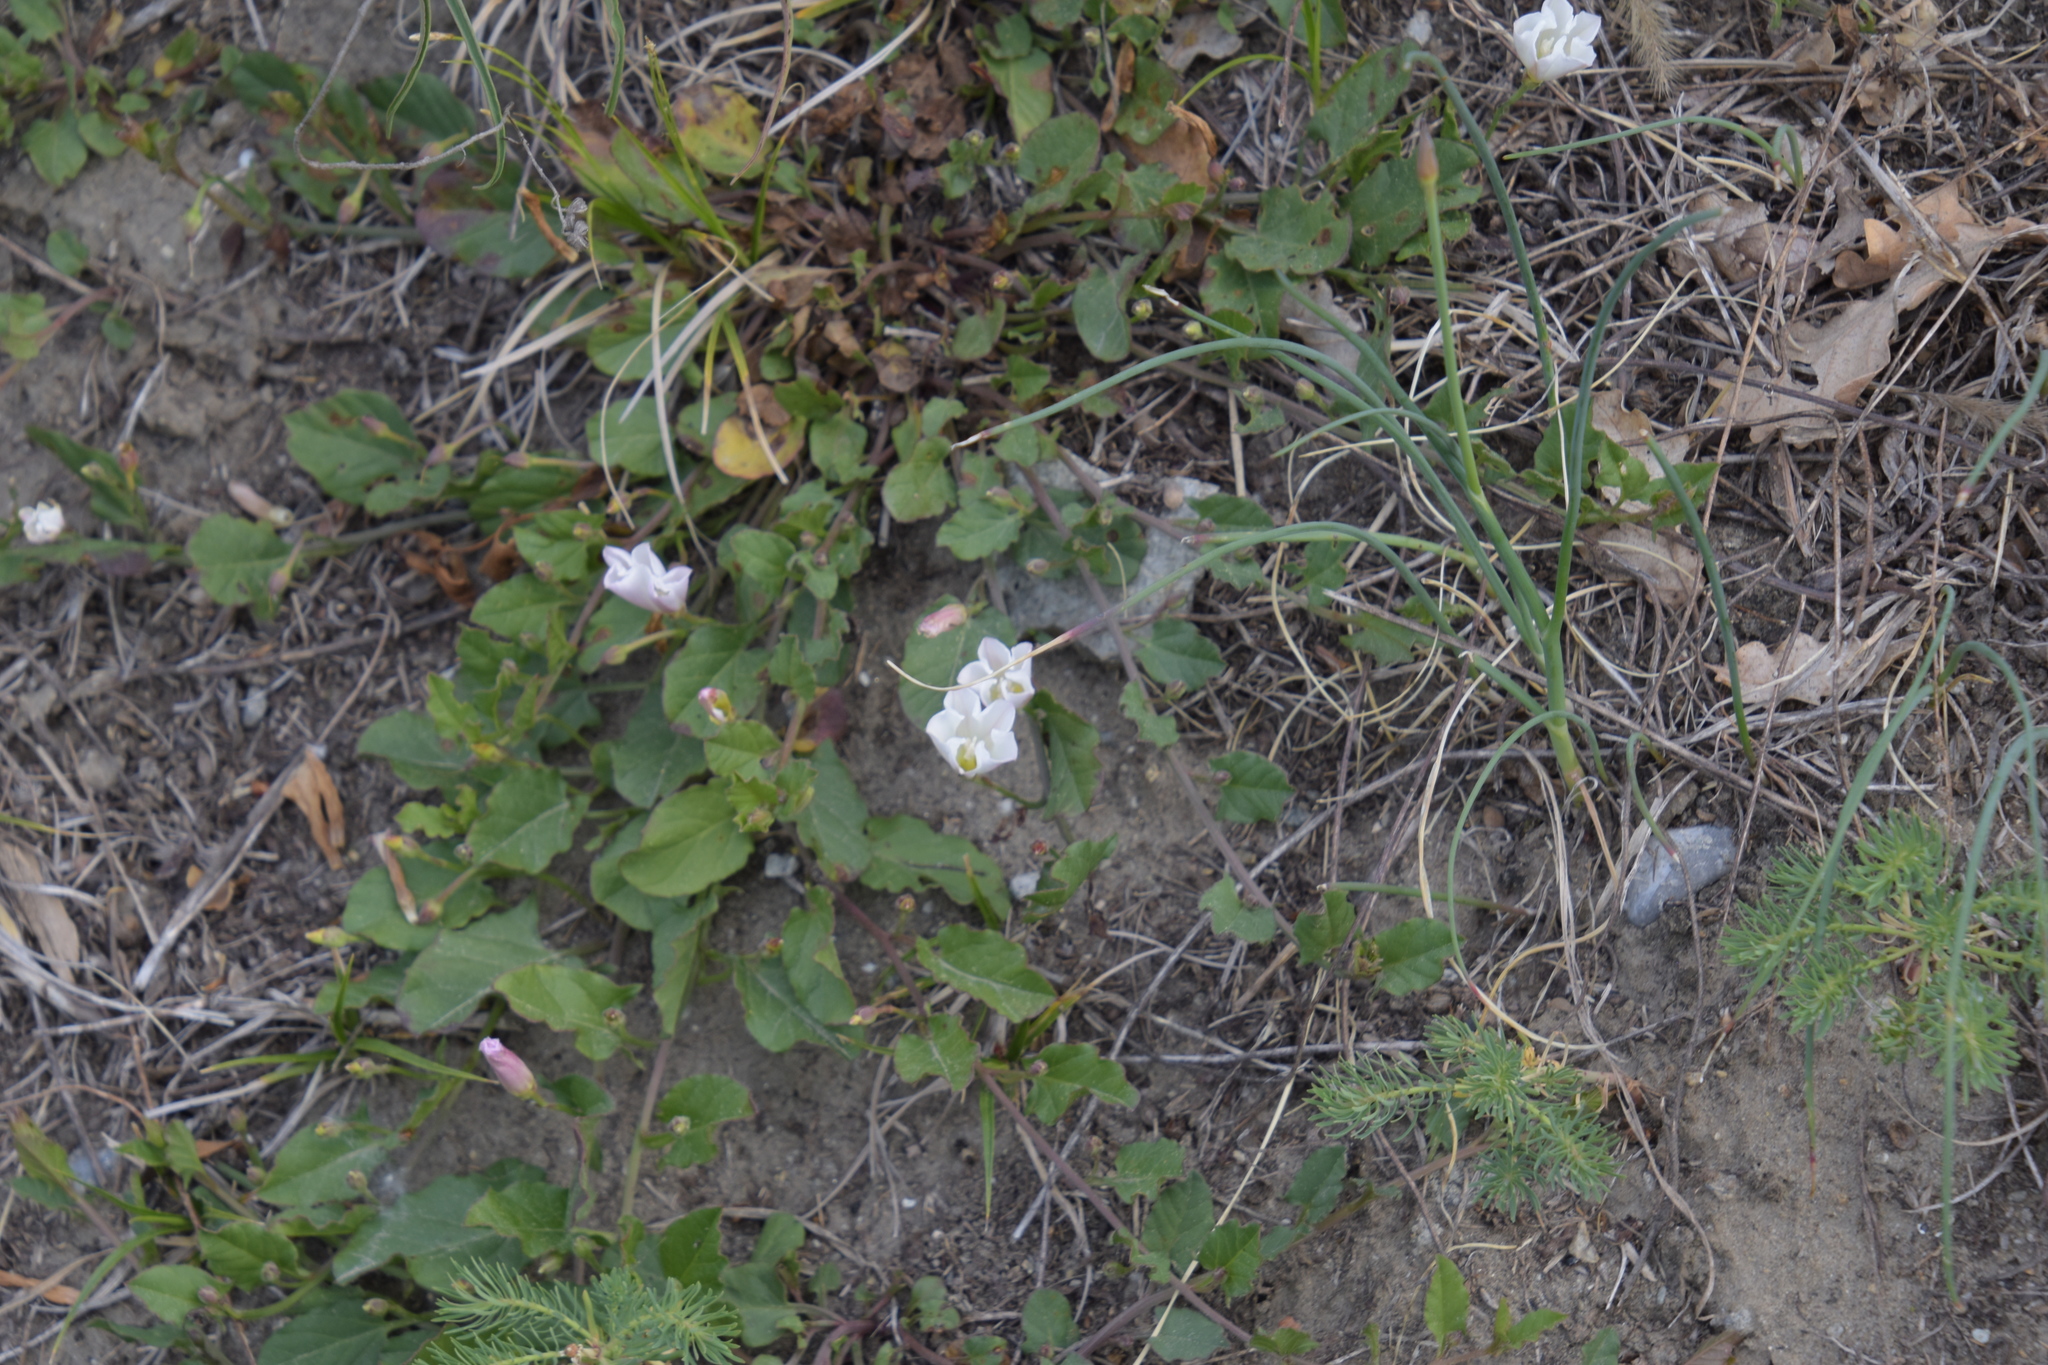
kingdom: Plantae
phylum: Tracheophyta
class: Magnoliopsida
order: Solanales
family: Convolvulaceae
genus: Convolvulus
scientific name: Convolvulus arvensis
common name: Field bindweed
